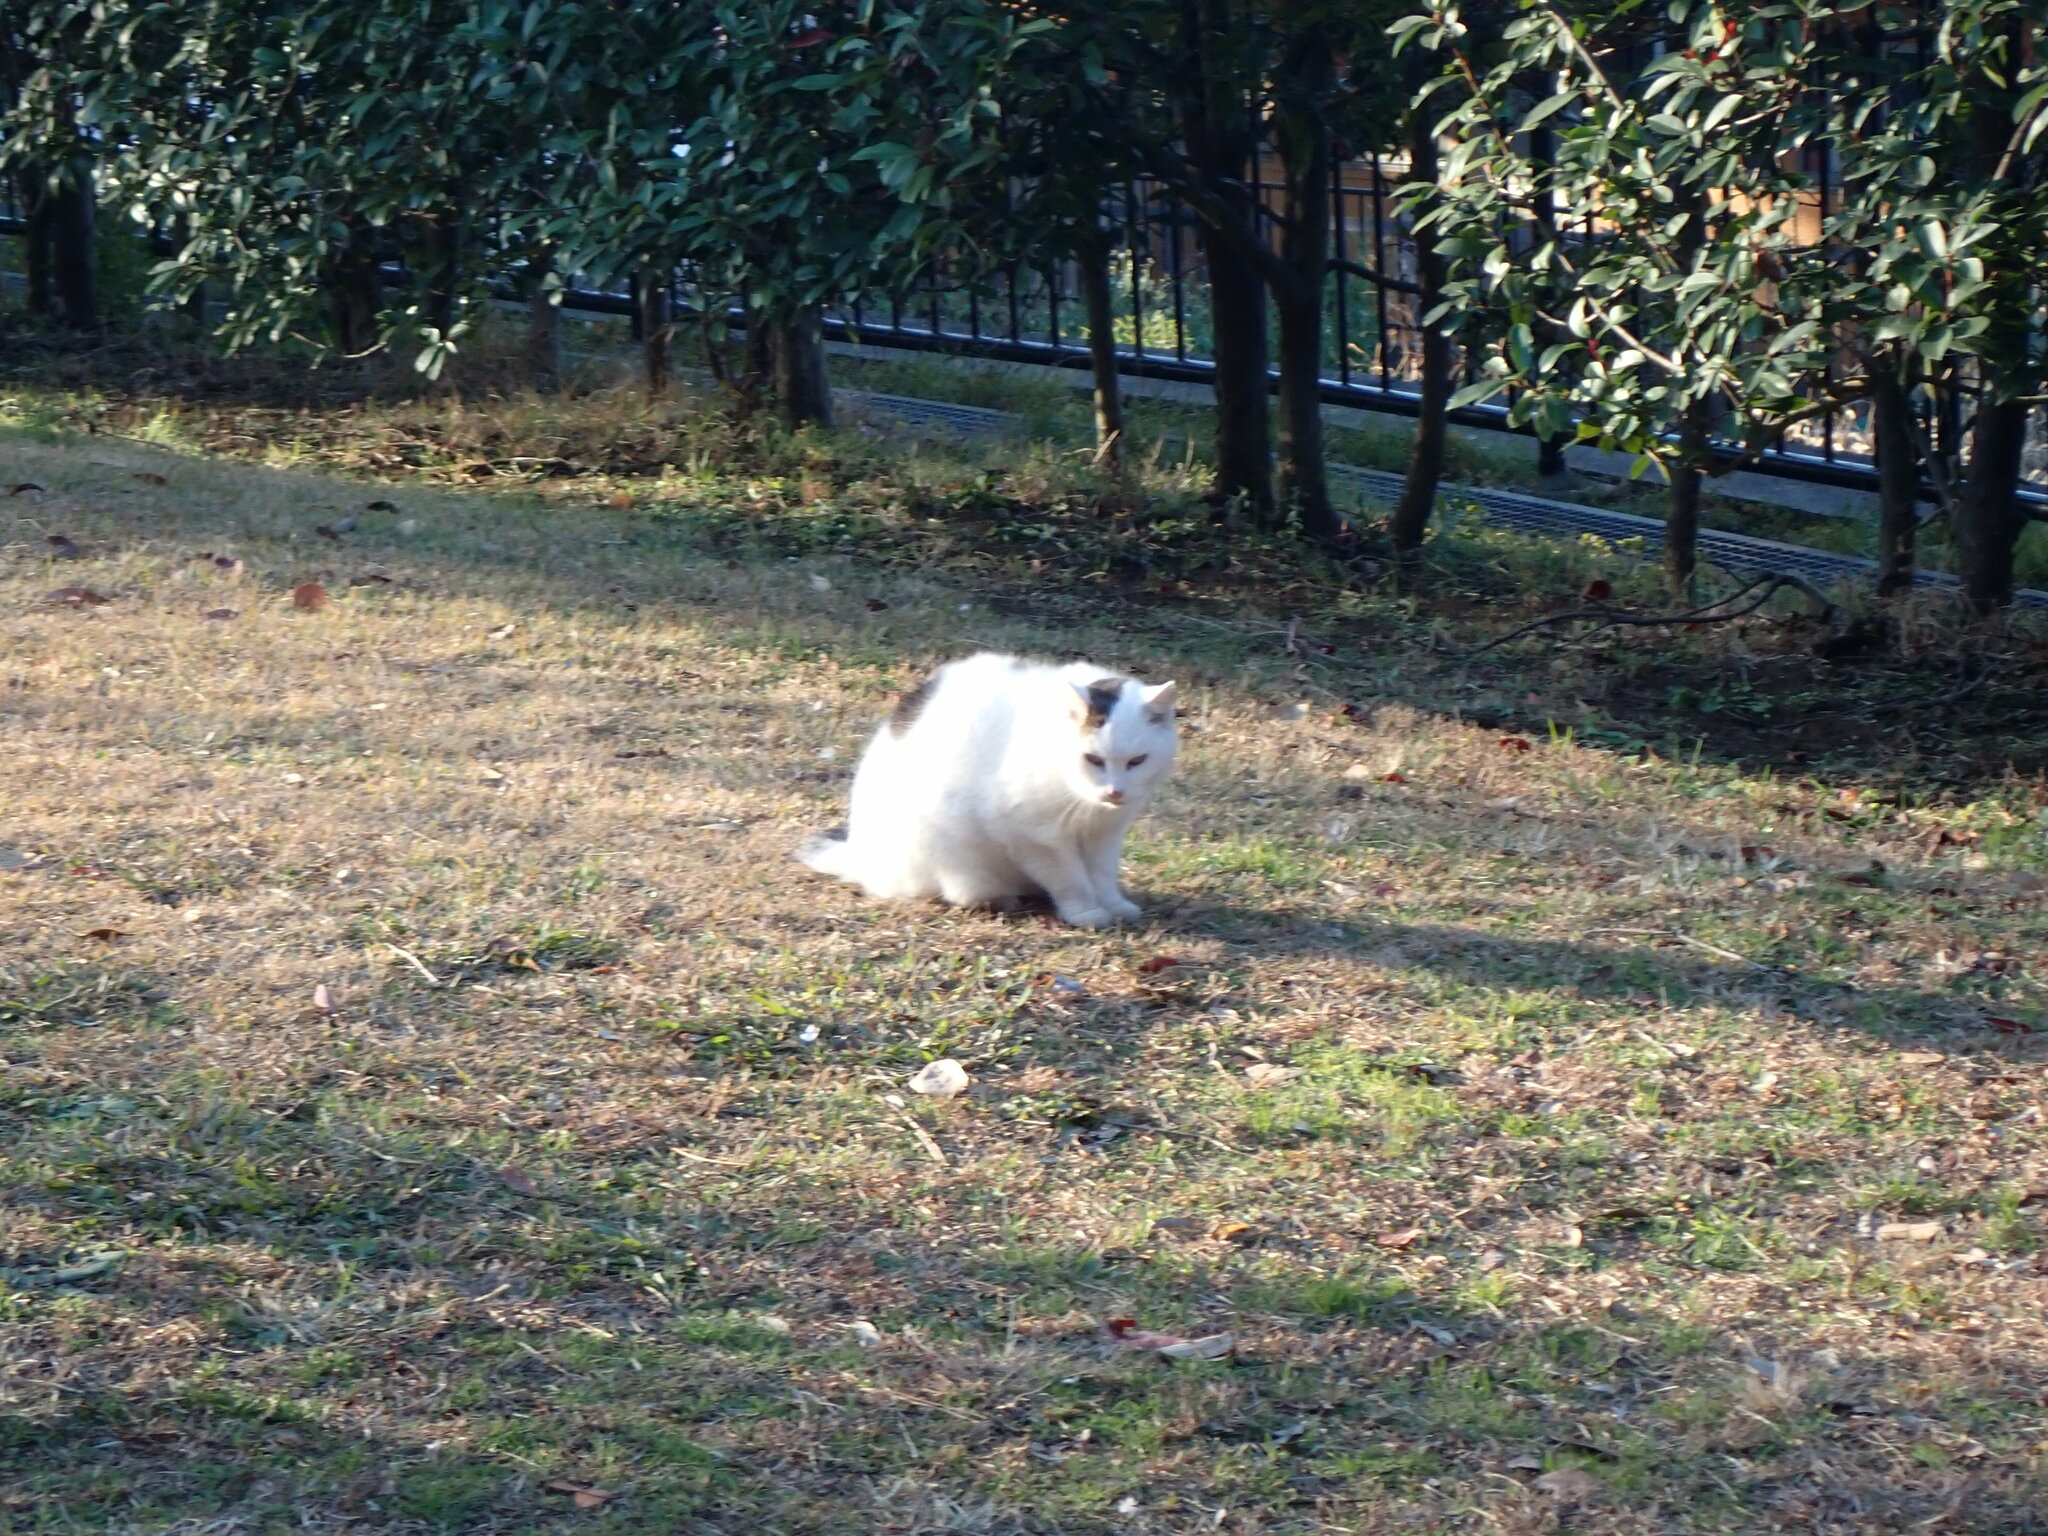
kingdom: Animalia
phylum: Chordata
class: Mammalia
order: Carnivora
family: Felidae
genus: Felis
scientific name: Felis catus
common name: Domestic cat
